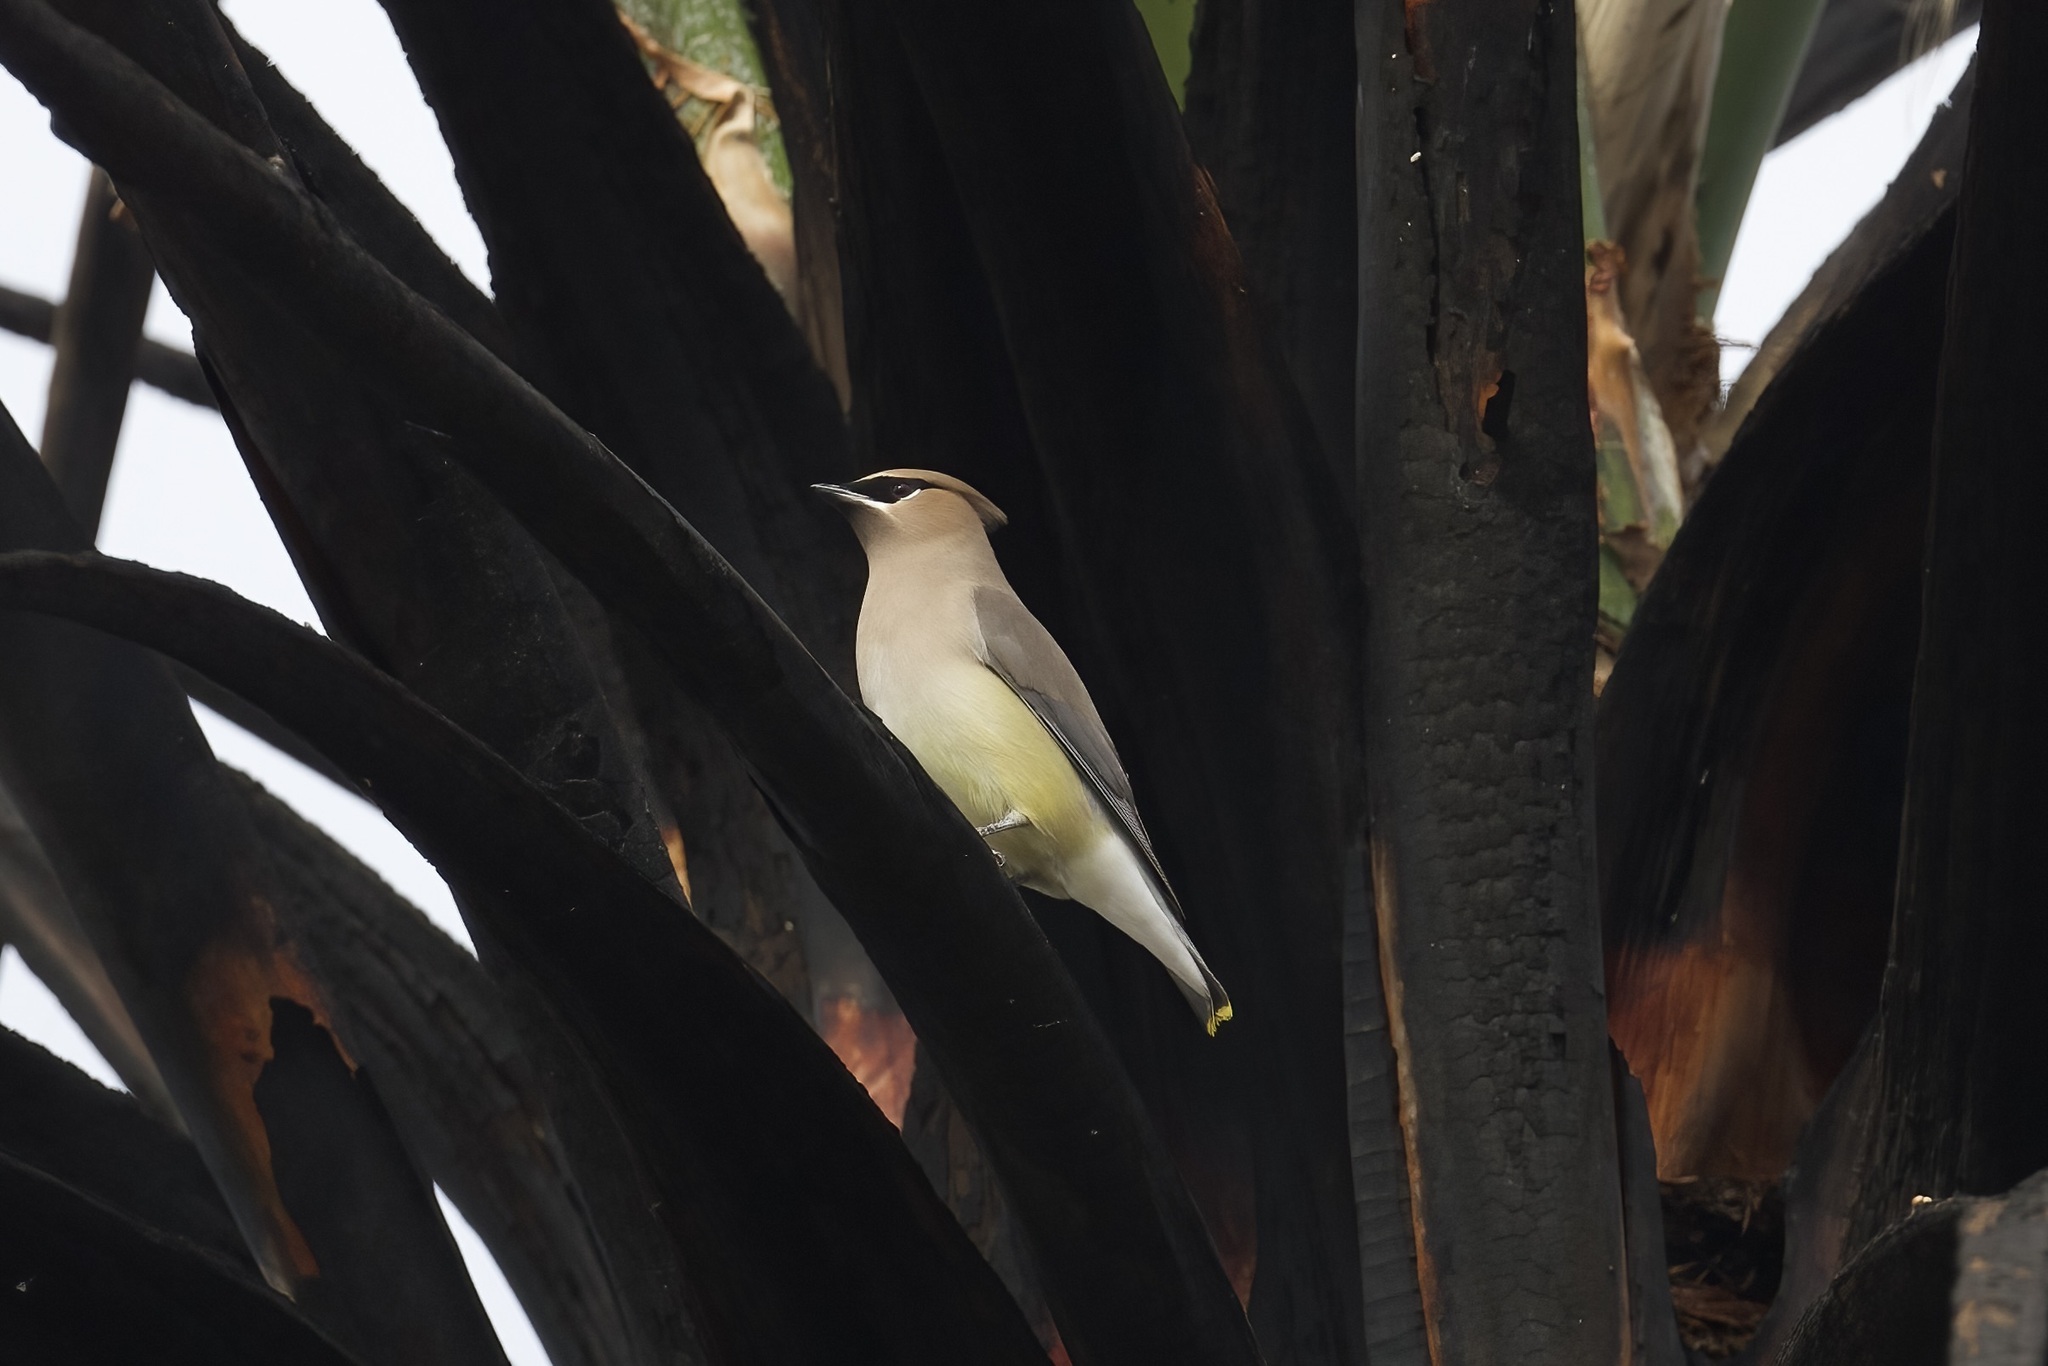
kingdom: Animalia
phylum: Chordata
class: Aves
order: Passeriformes
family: Bombycillidae
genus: Bombycilla
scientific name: Bombycilla cedrorum
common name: Cedar waxwing
